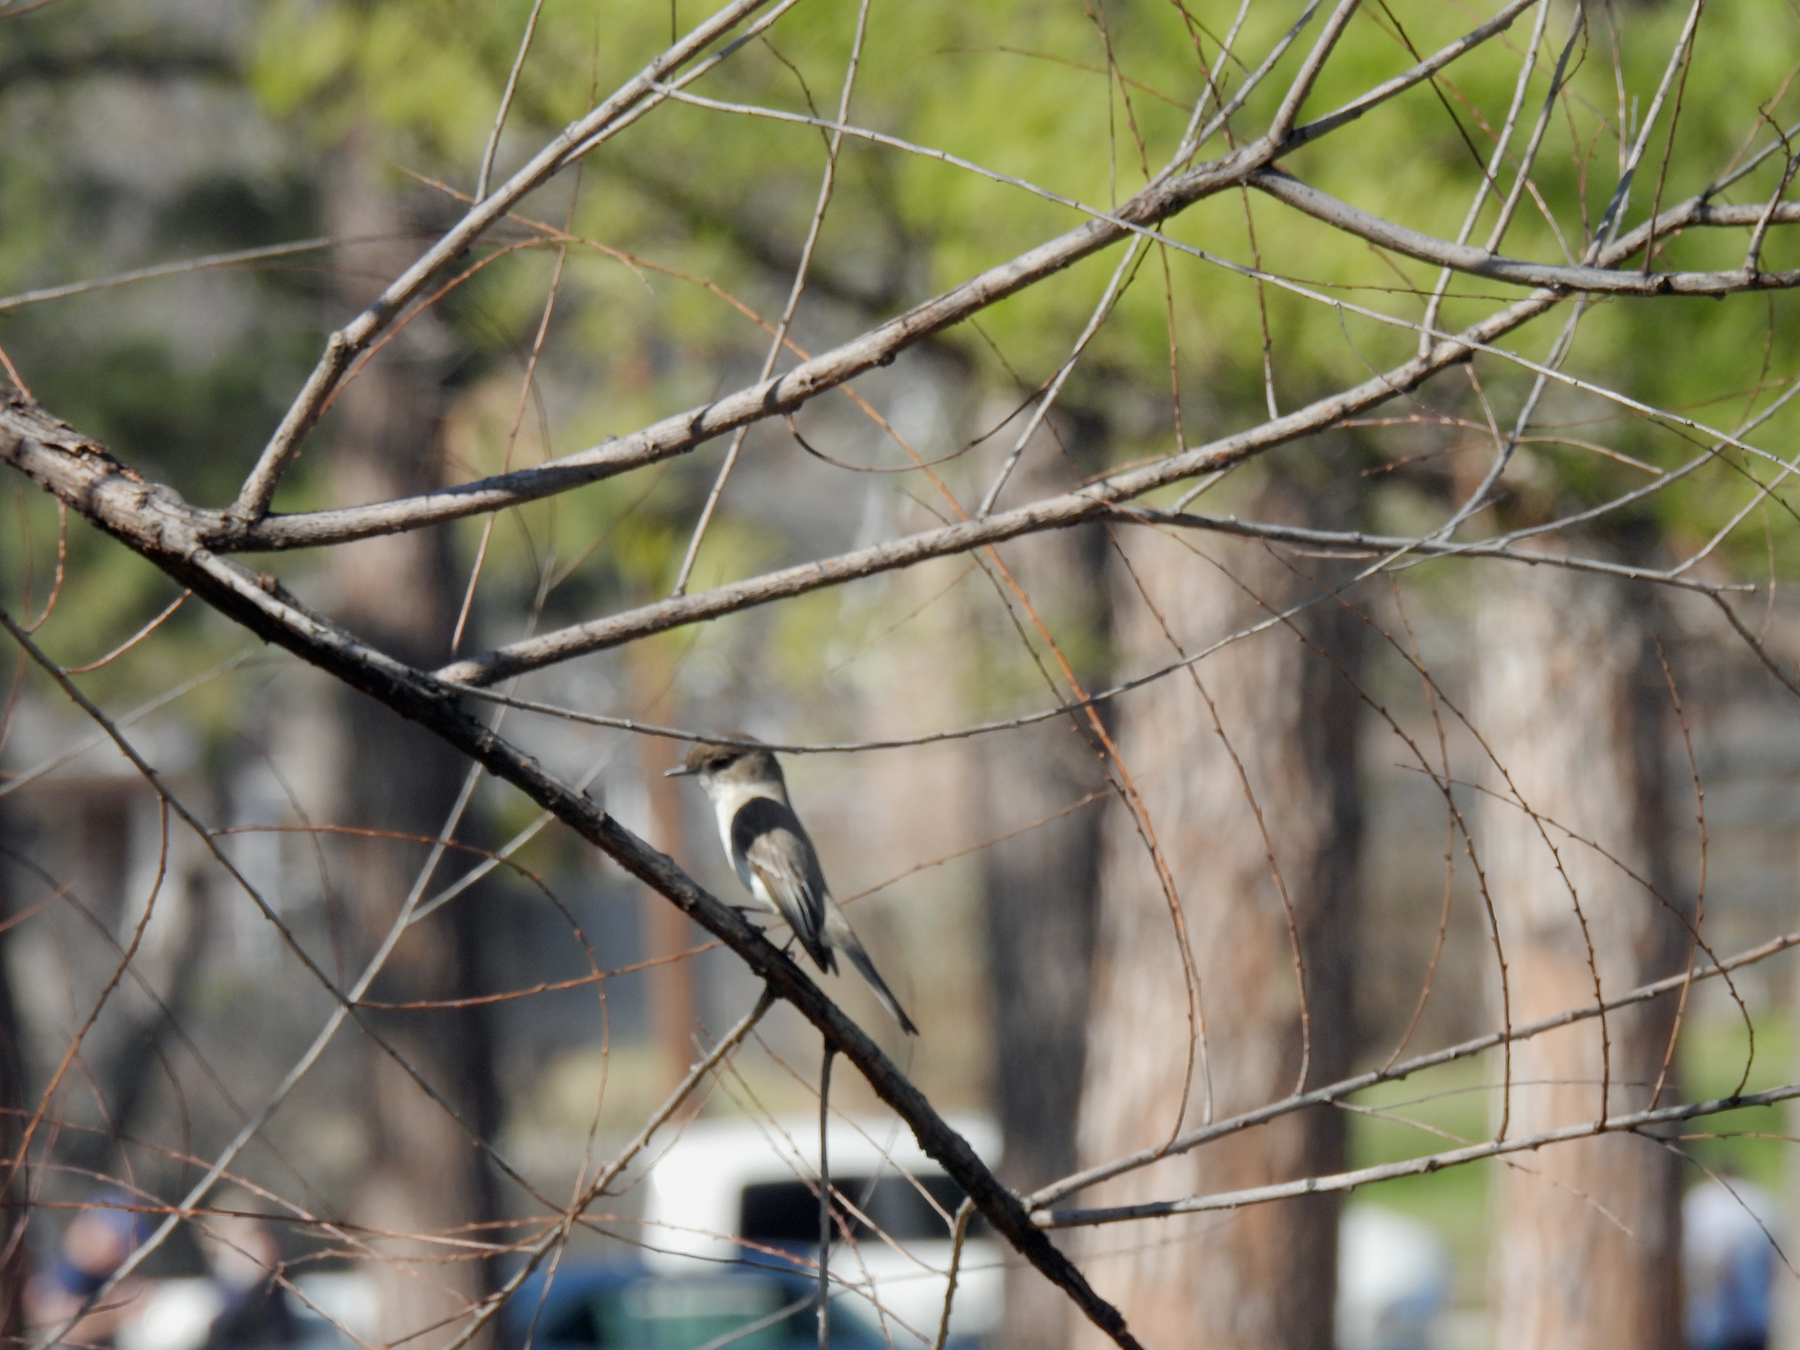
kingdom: Animalia
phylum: Chordata
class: Aves
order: Passeriformes
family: Tyrannidae
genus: Sayornis
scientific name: Sayornis phoebe
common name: Eastern phoebe
